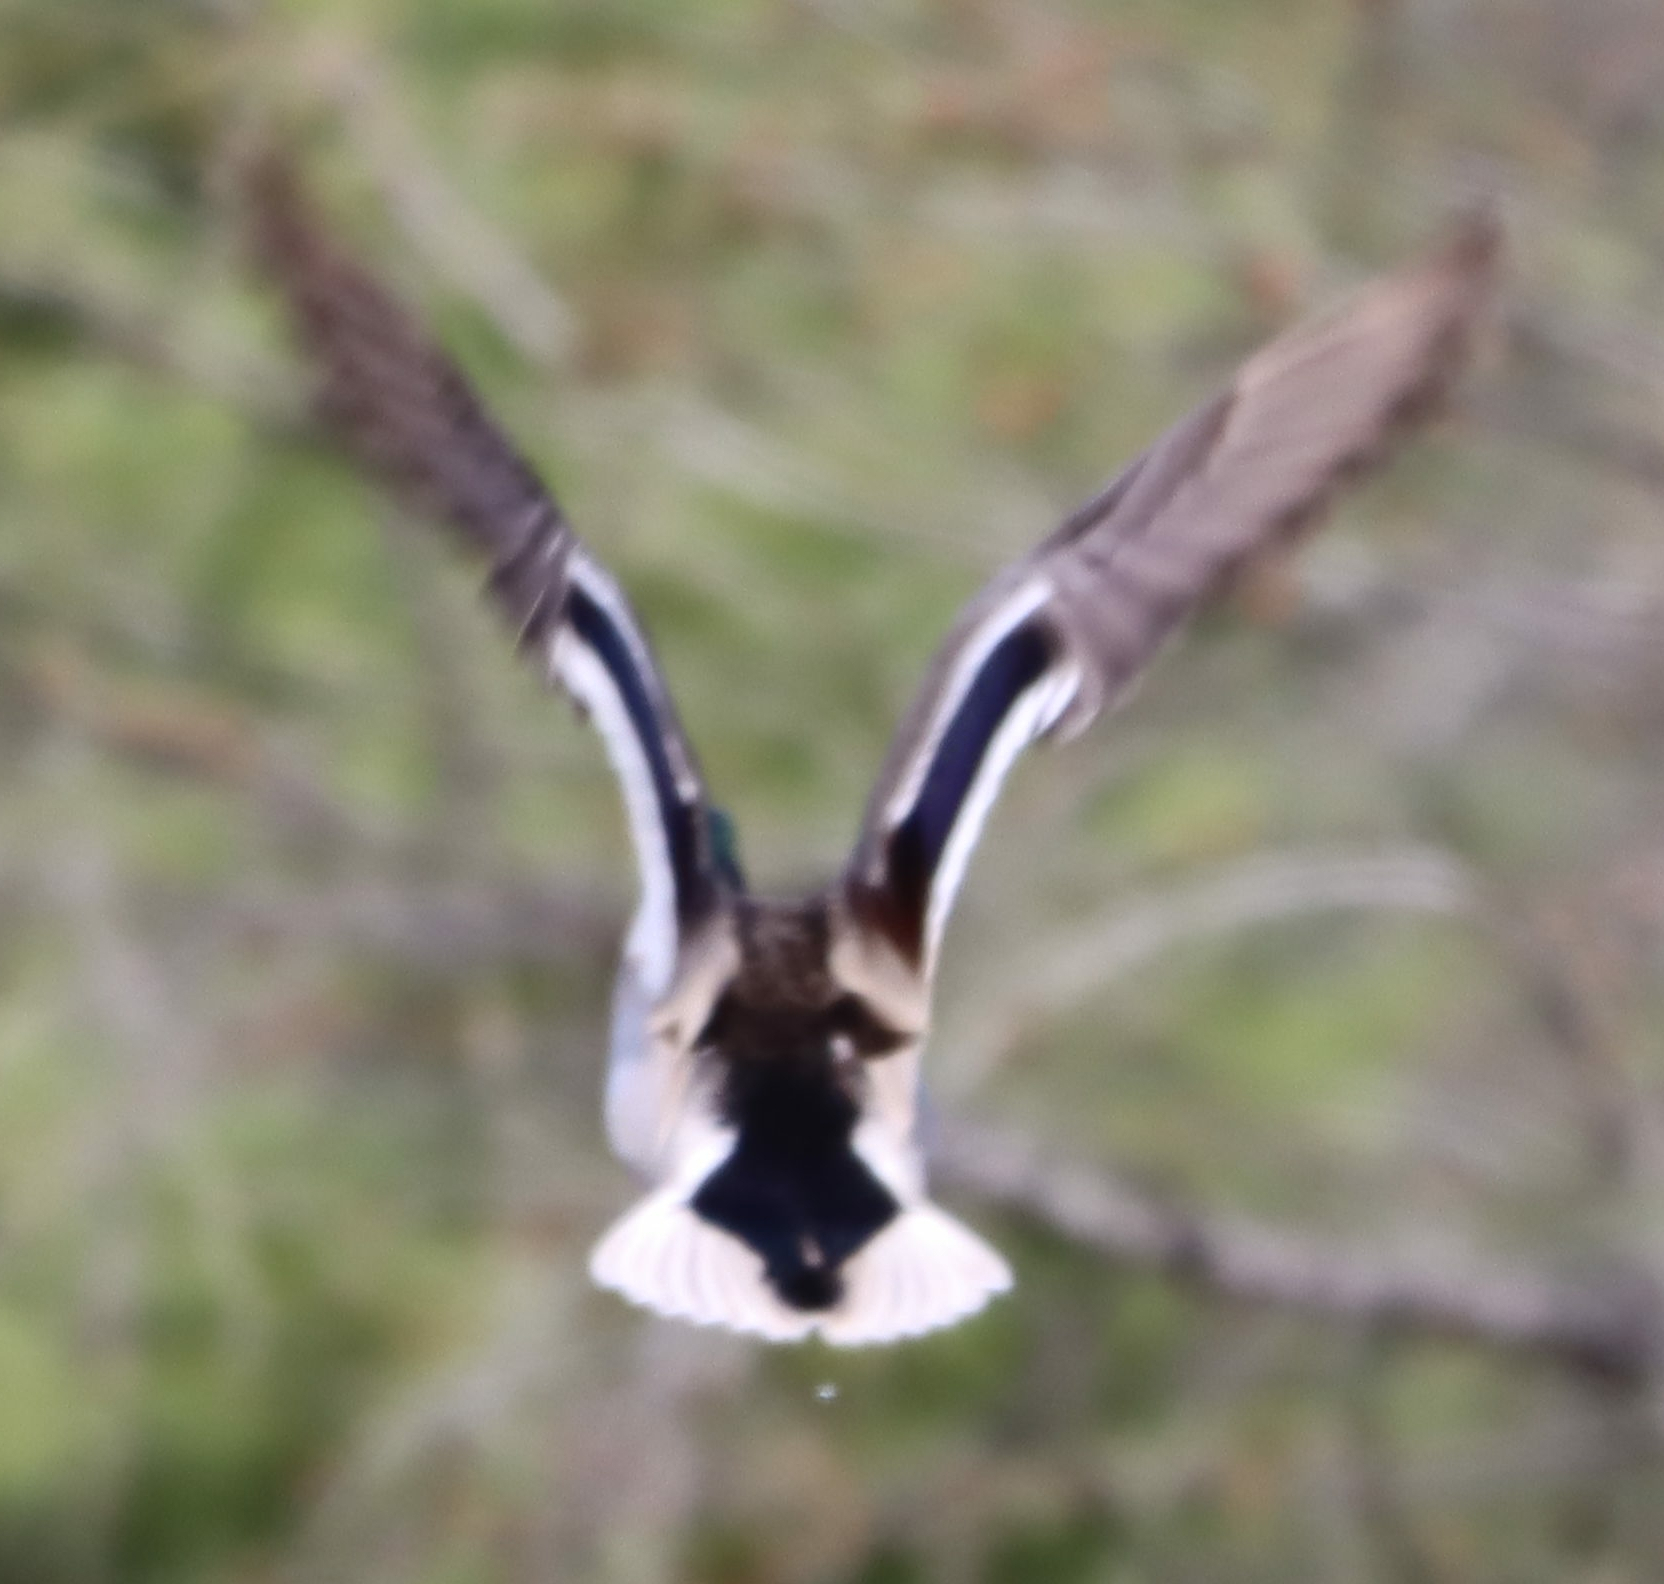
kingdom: Animalia
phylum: Chordata
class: Aves
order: Anseriformes
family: Anatidae
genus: Anas
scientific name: Anas platyrhynchos
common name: Mallard
